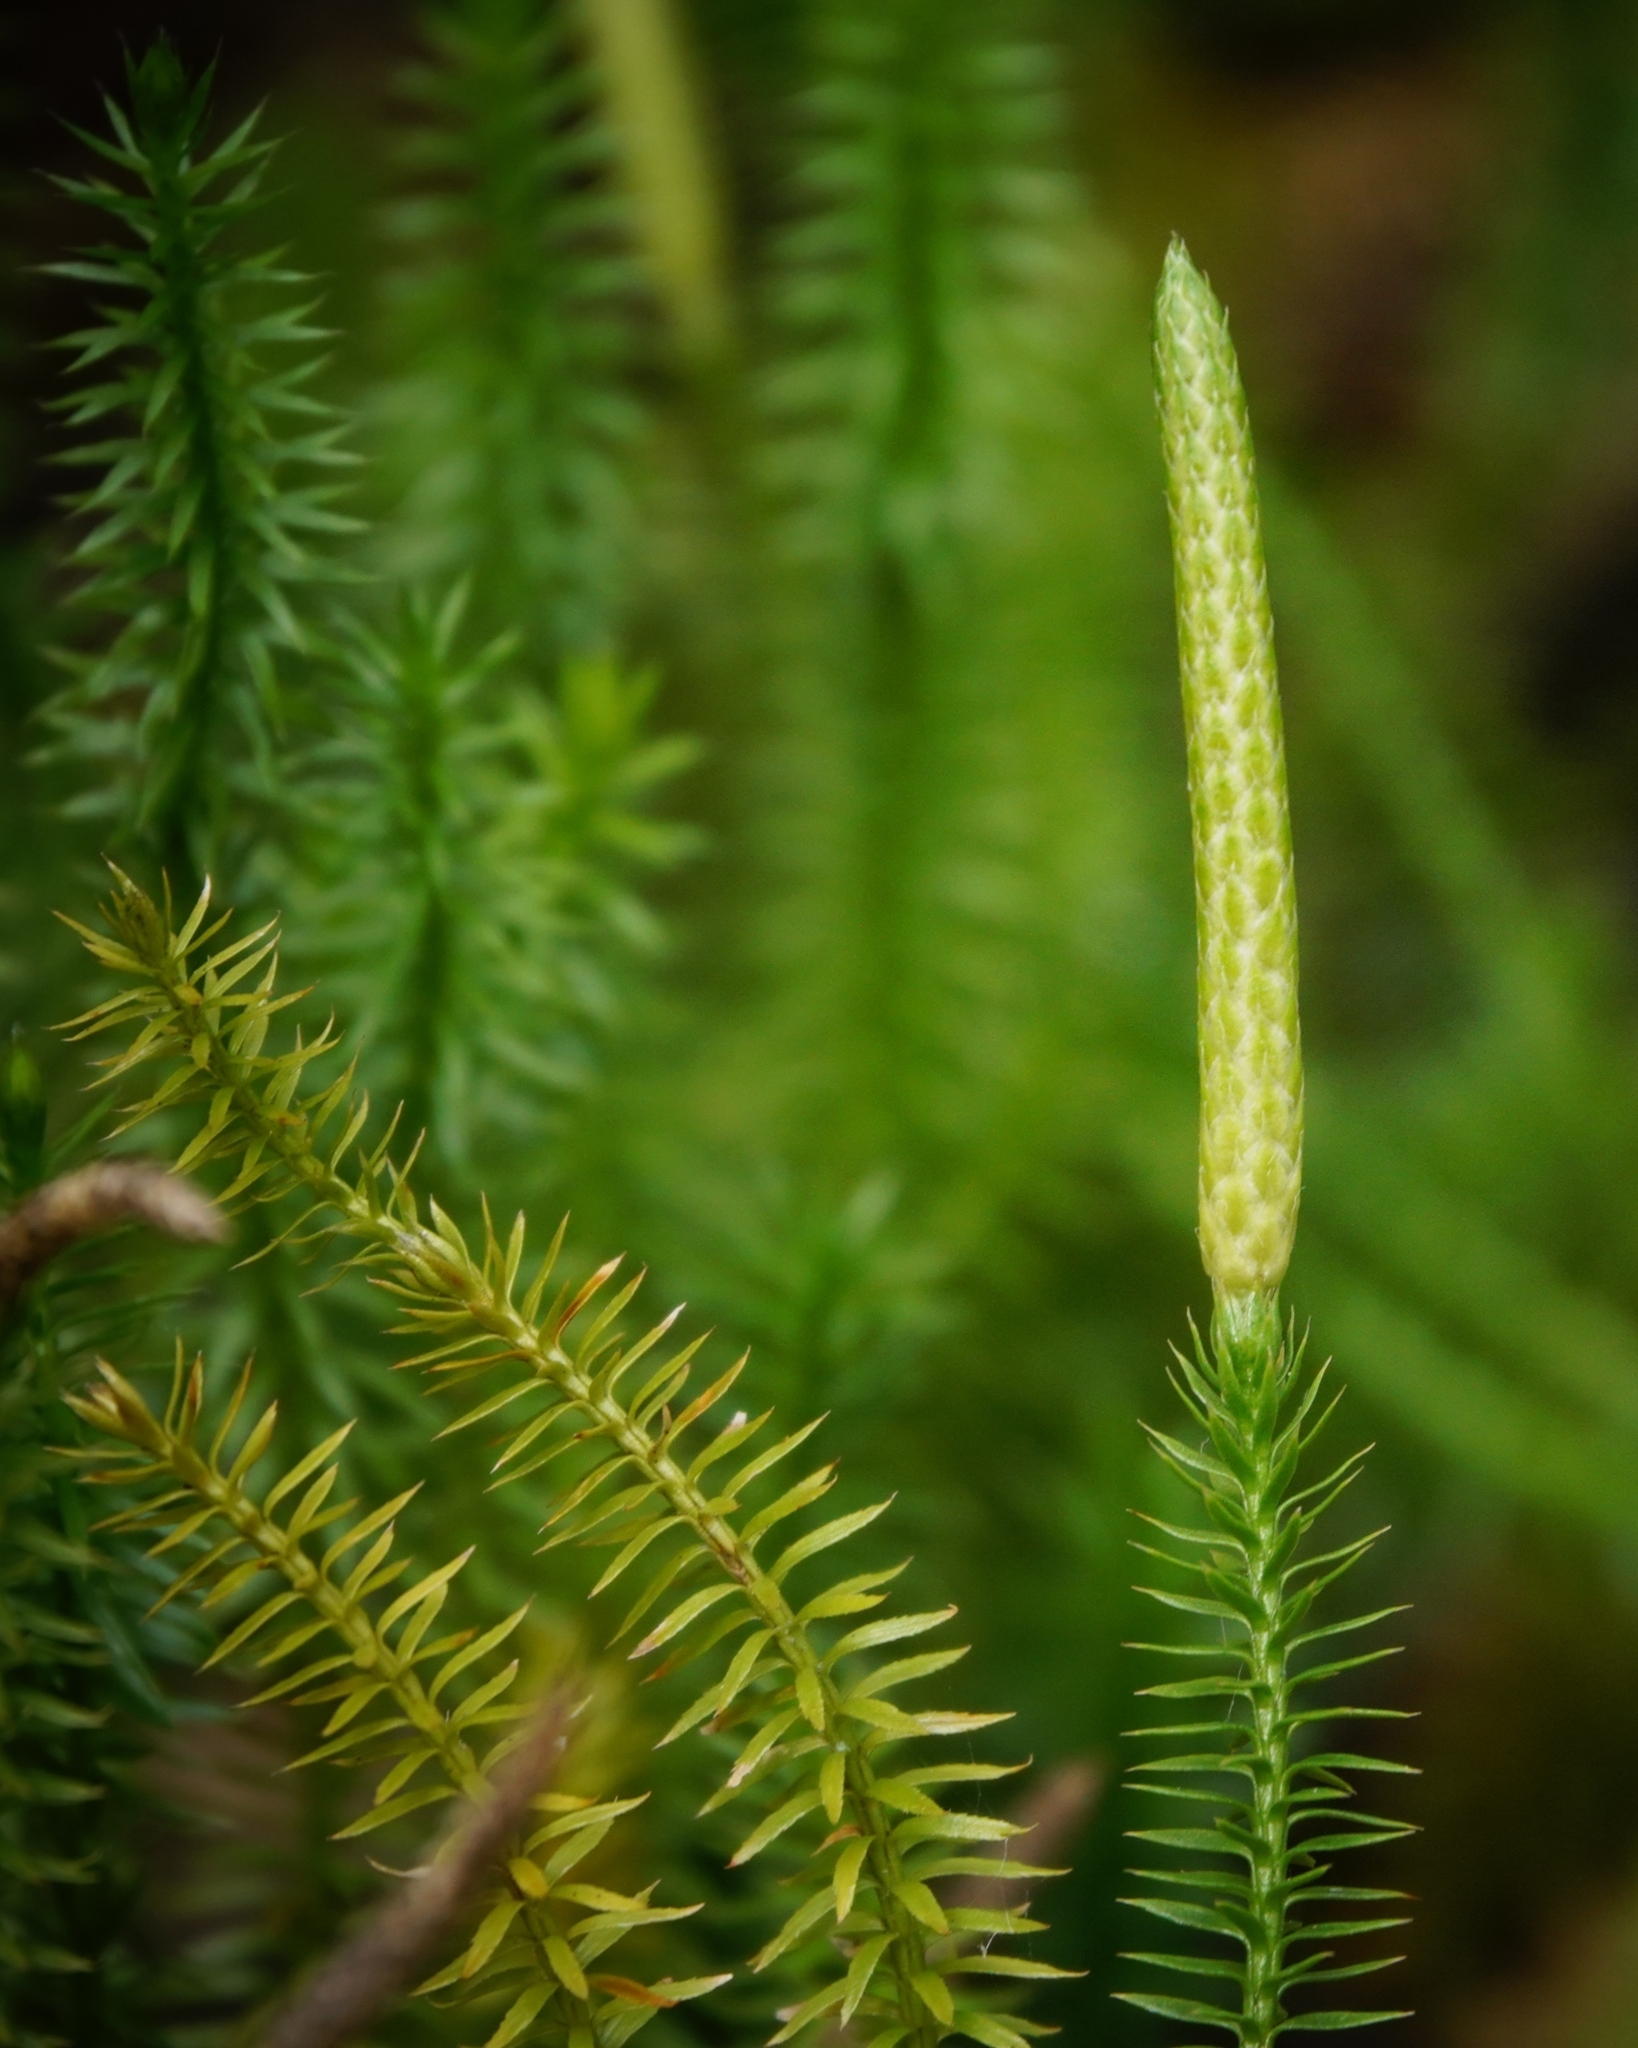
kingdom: Plantae
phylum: Tracheophyta
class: Lycopodiopsida
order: Lycopodiales
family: Lycopodiaceae
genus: Spinulum
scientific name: Spinulum annotinum
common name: Interrupted club-moss
